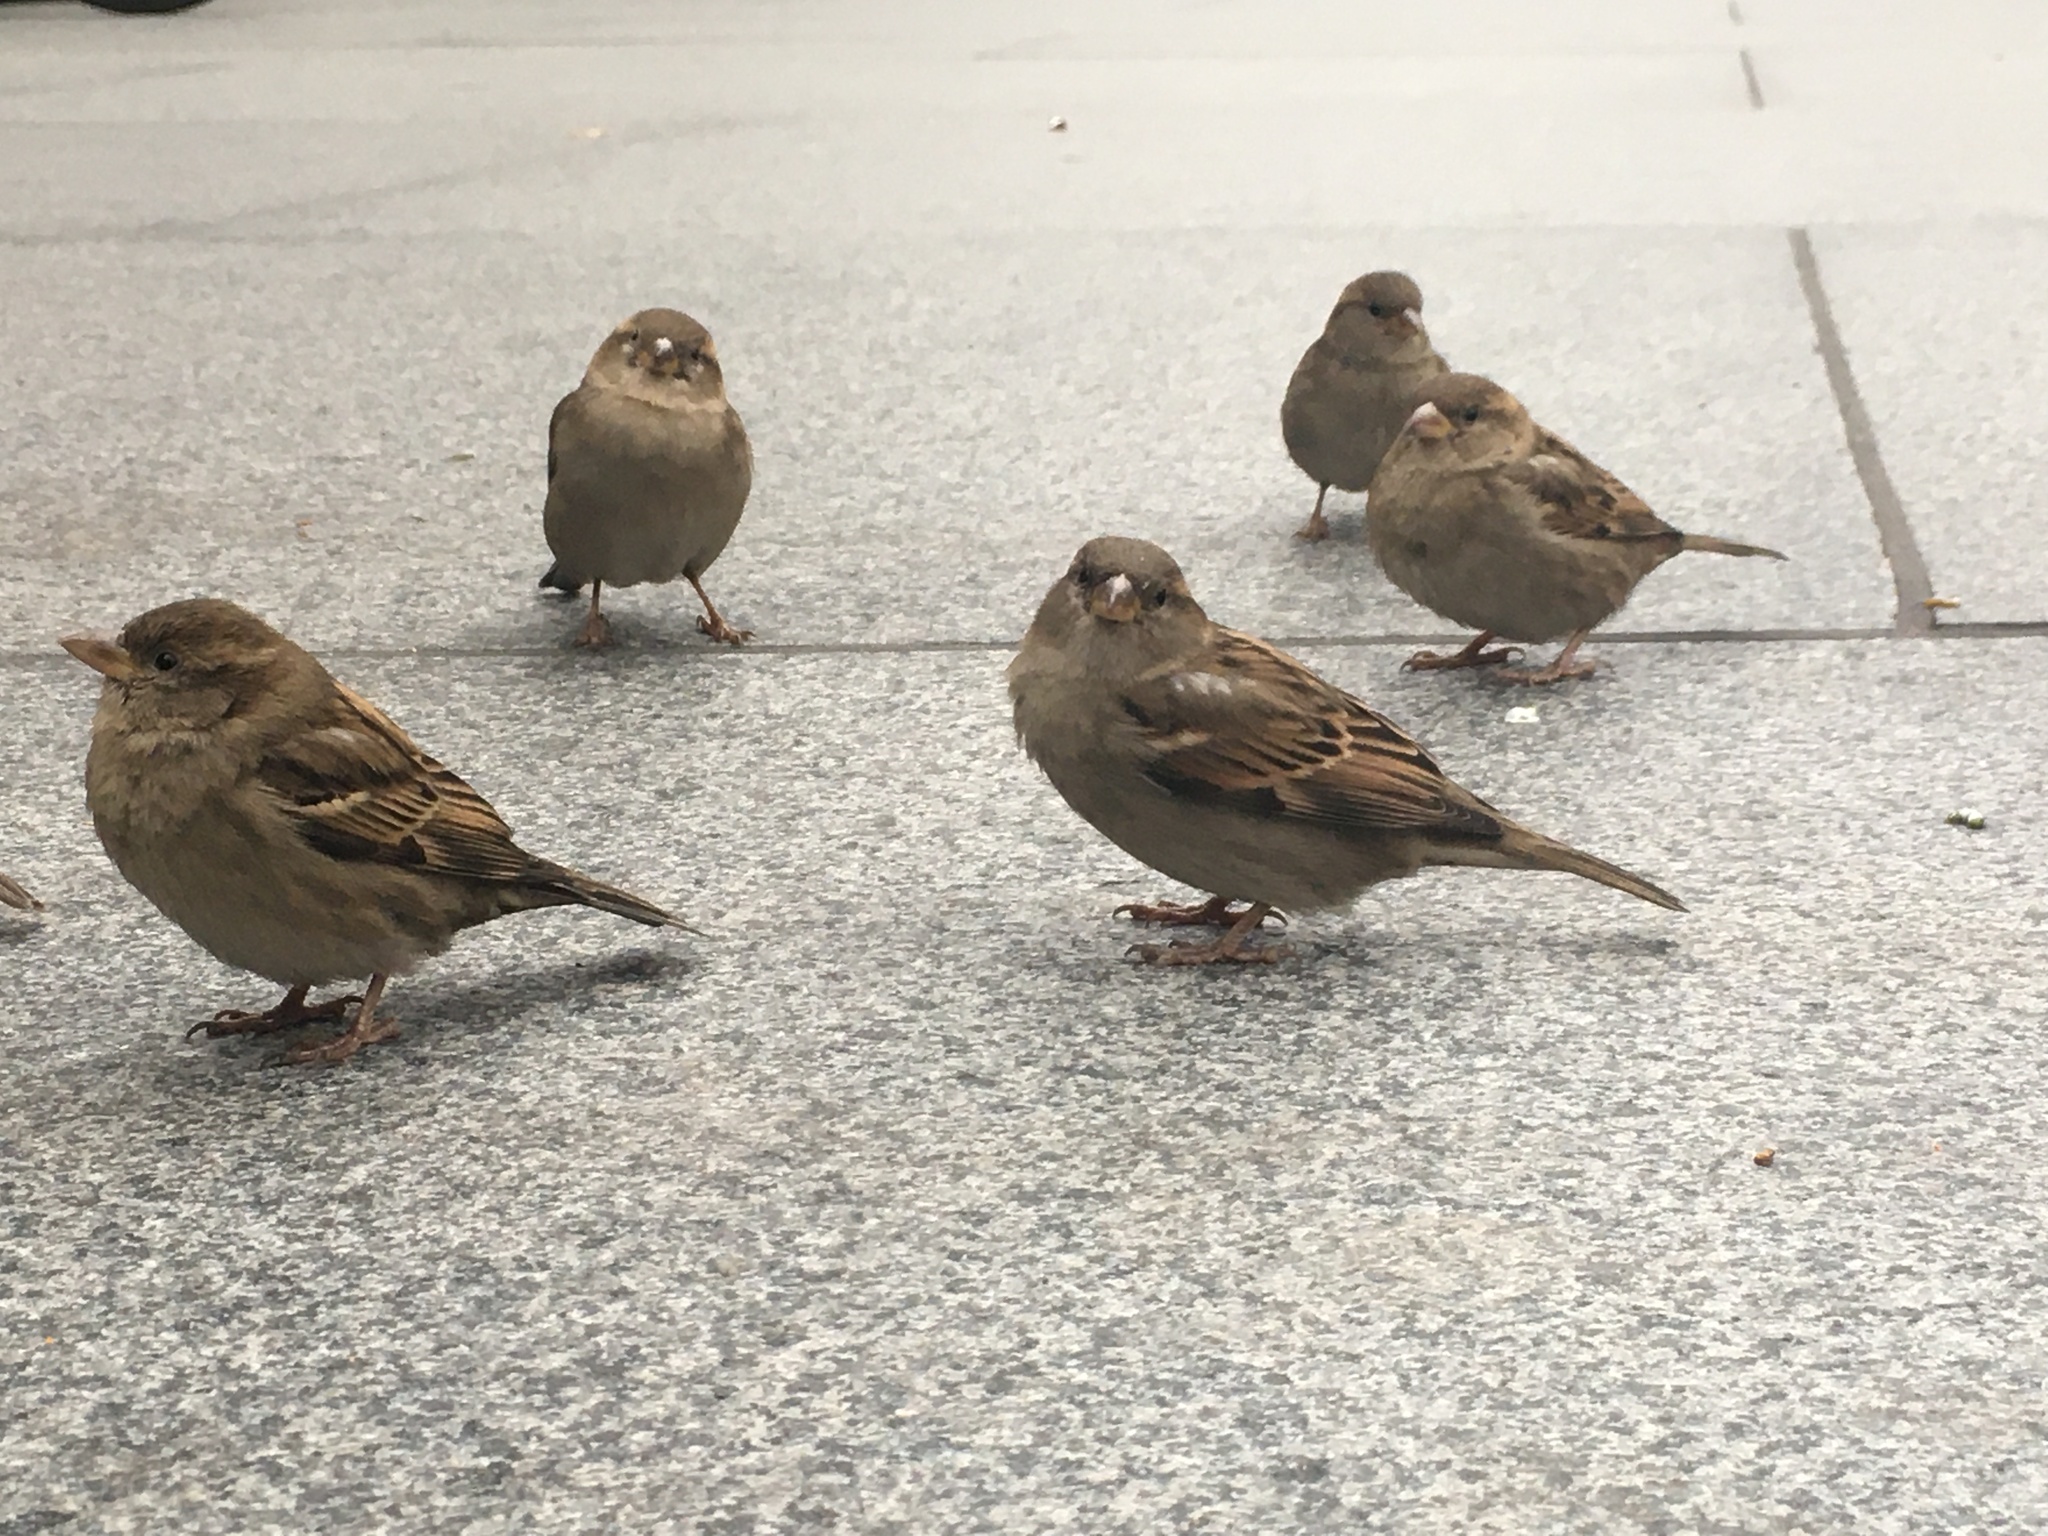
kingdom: Animalia
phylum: Chordata
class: Aves
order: Passeriformes
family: Passeridae
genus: Passer
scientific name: Passer domesticus
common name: House sparrow
